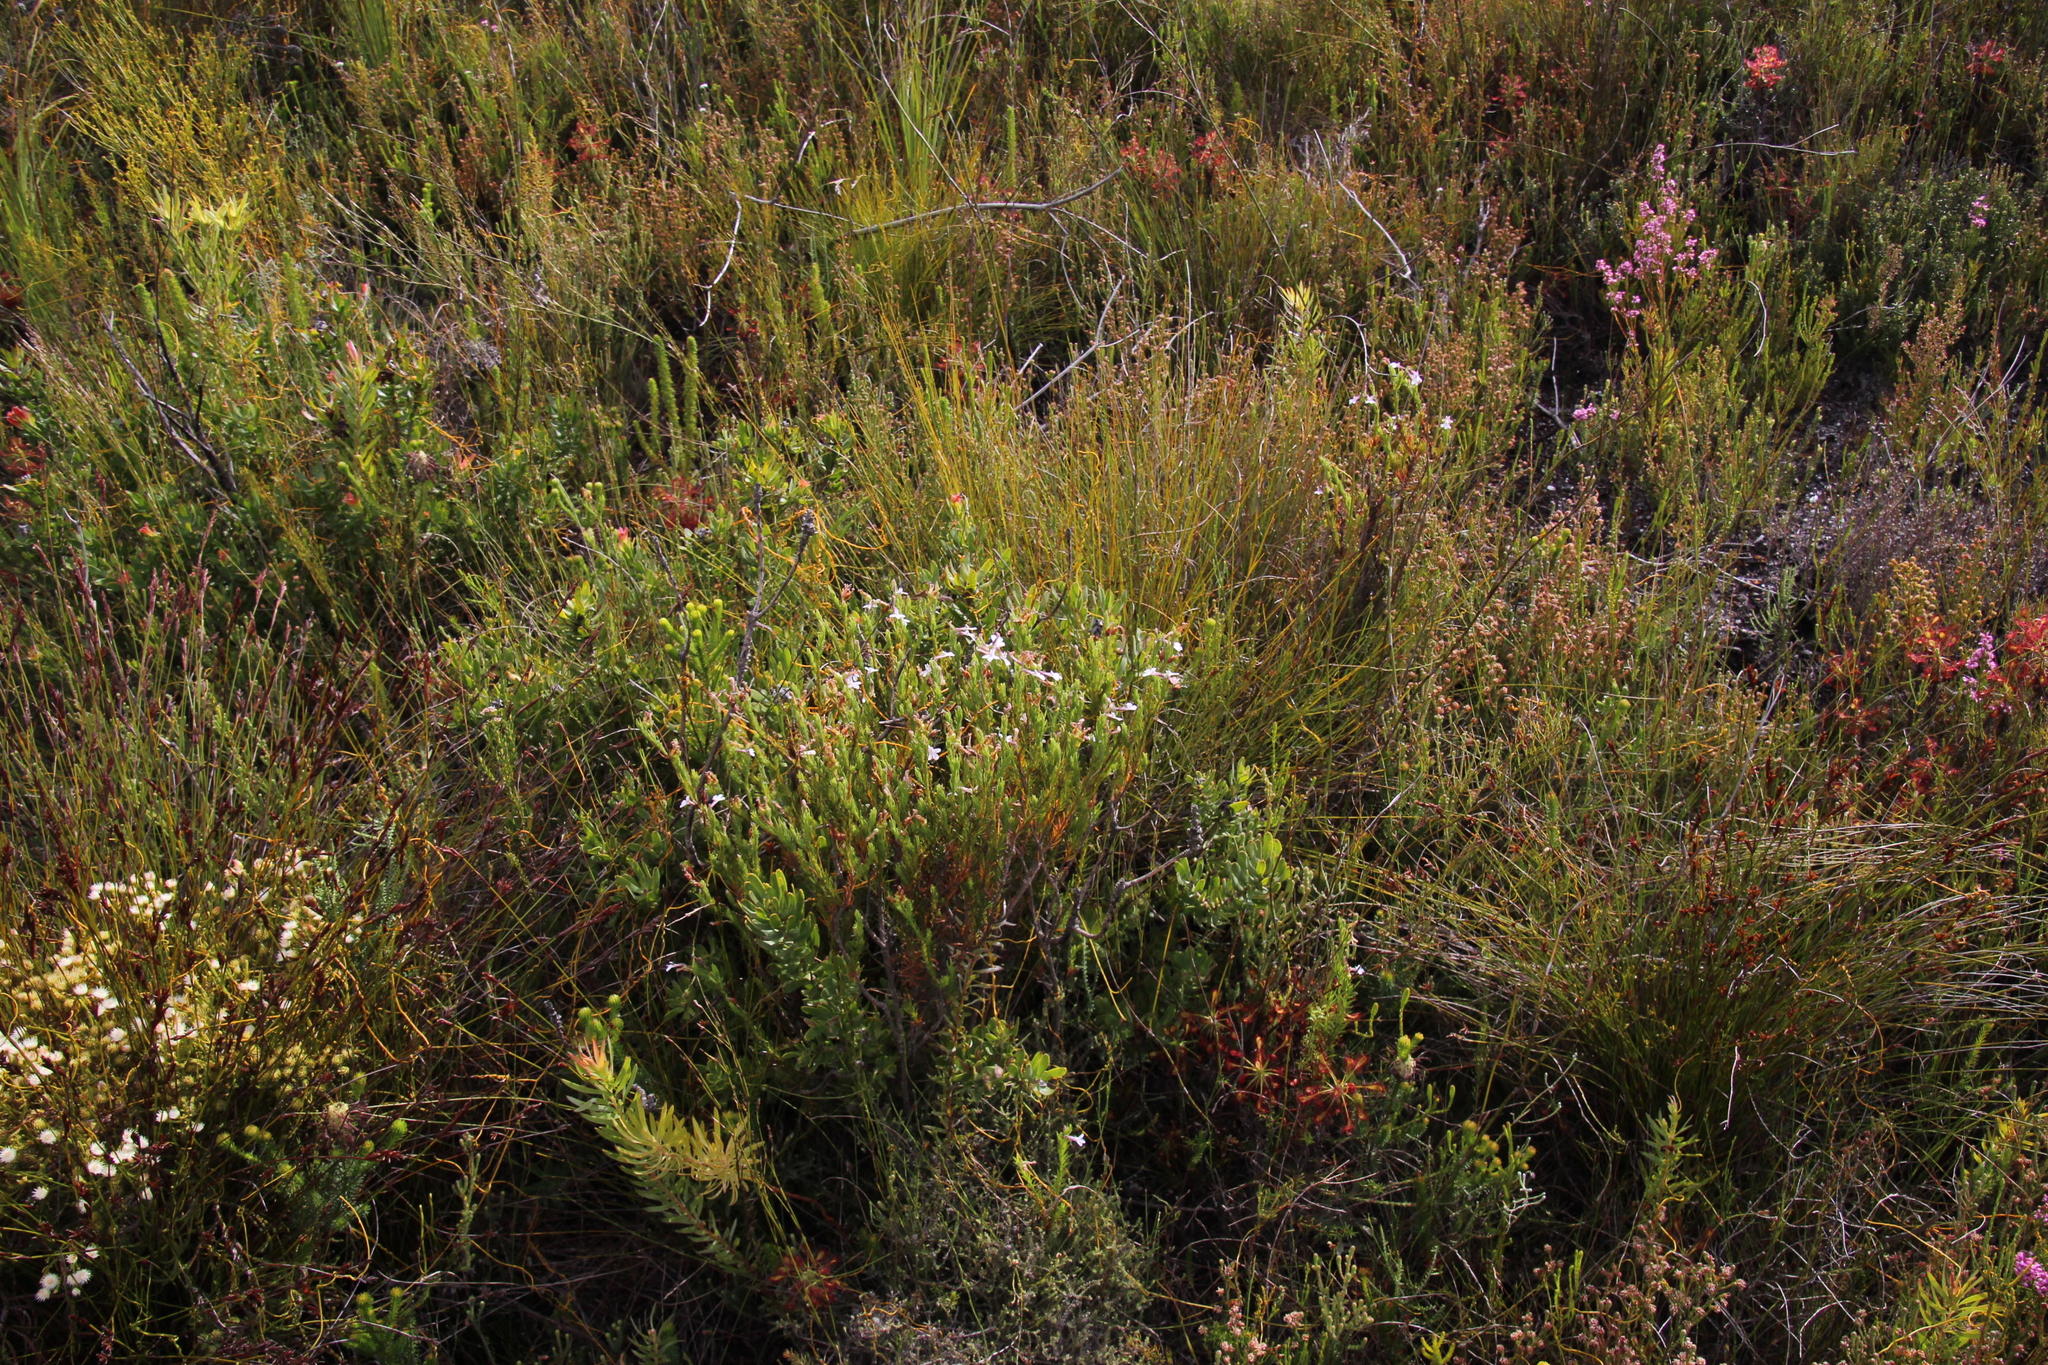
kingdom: Plantae
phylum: Tracheophyta
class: Magnoliopsida
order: Asterales
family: Campanulaceae
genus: Lobelia
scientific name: Lobelia pinifolia
